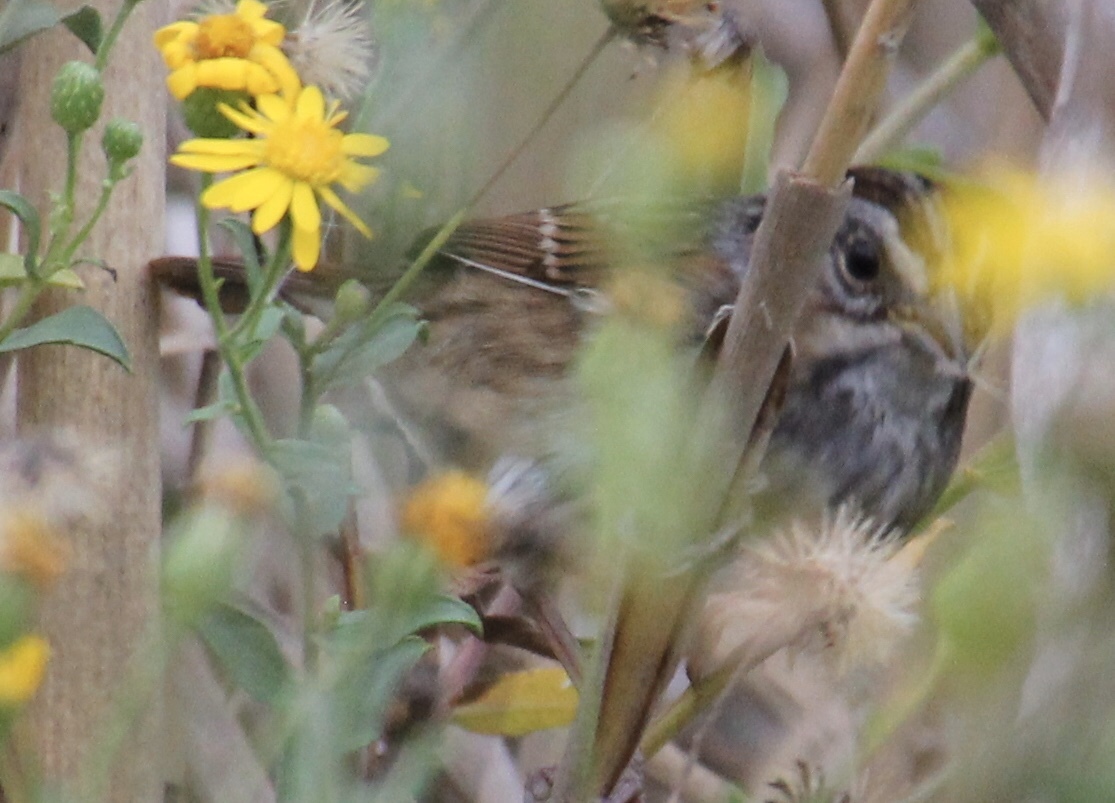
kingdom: Animalia
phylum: Chordata
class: Aves
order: Passeriformes
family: Passerellidae
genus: Melospiza
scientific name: Melospiza georgiana
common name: Swamp sparrow
